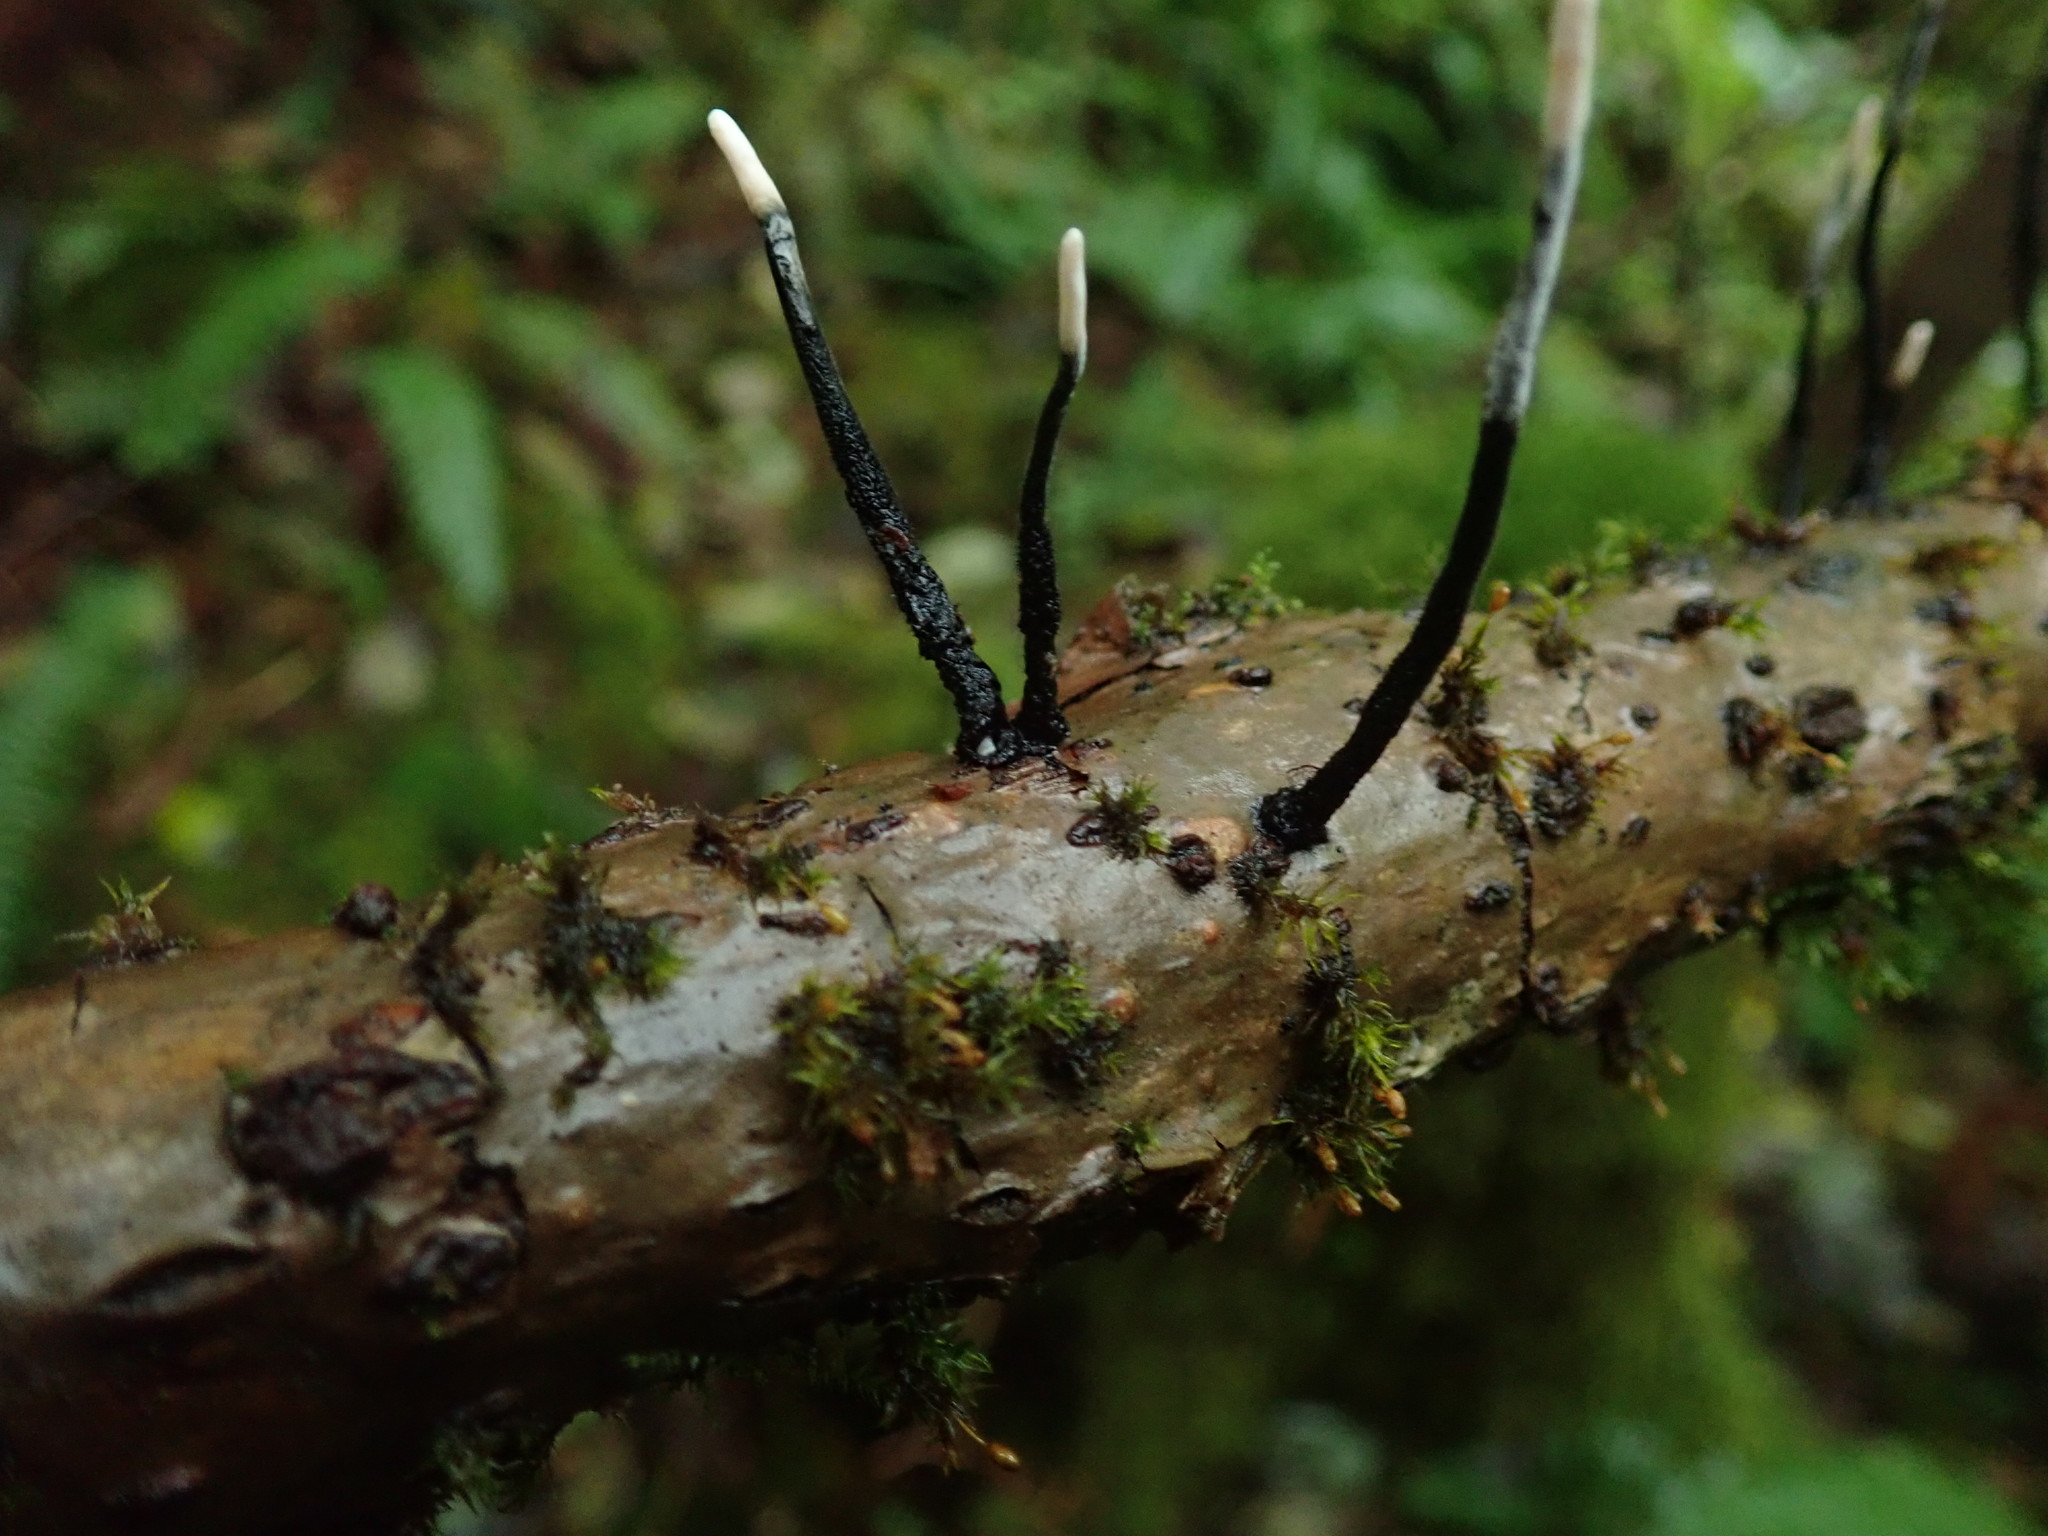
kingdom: Fungi
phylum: Ascomycota
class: Sordariomycetes
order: Xylariales
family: Xylariaceae
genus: Xylaria
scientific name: Xylaria hypoxylon
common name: Candle-snuff fungus
